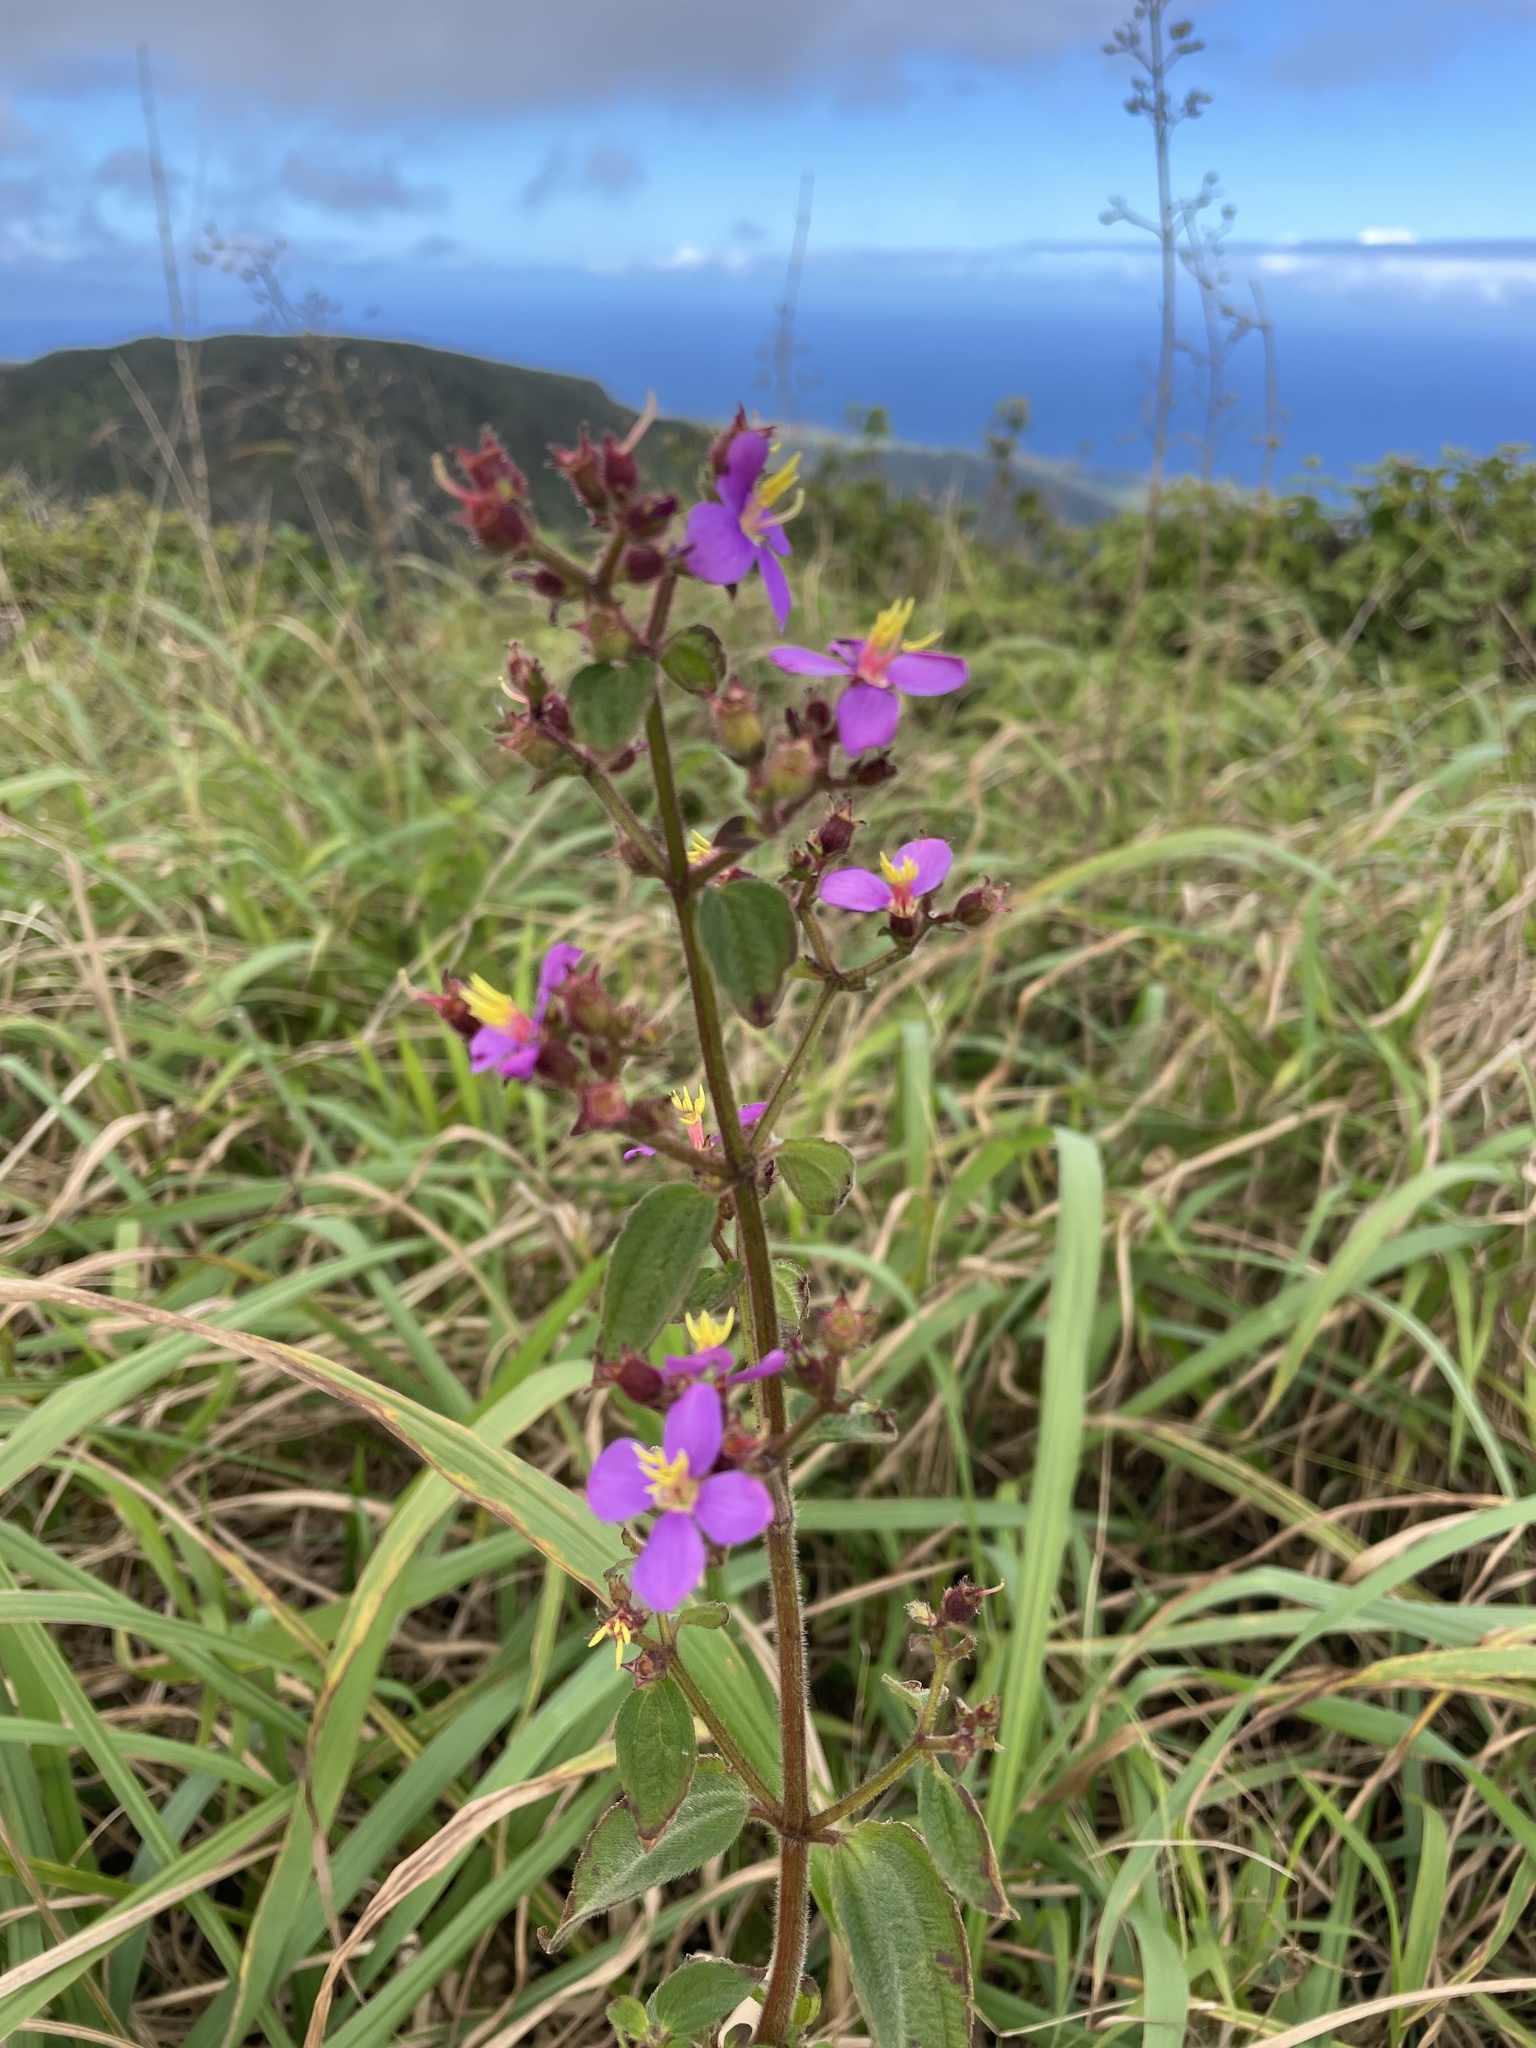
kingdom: Plantae
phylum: Tracheophyta
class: Magnoliopsida
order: Myrtales
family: Melastomataceae
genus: Chaetogastra
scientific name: Chaetogastra herbacea
